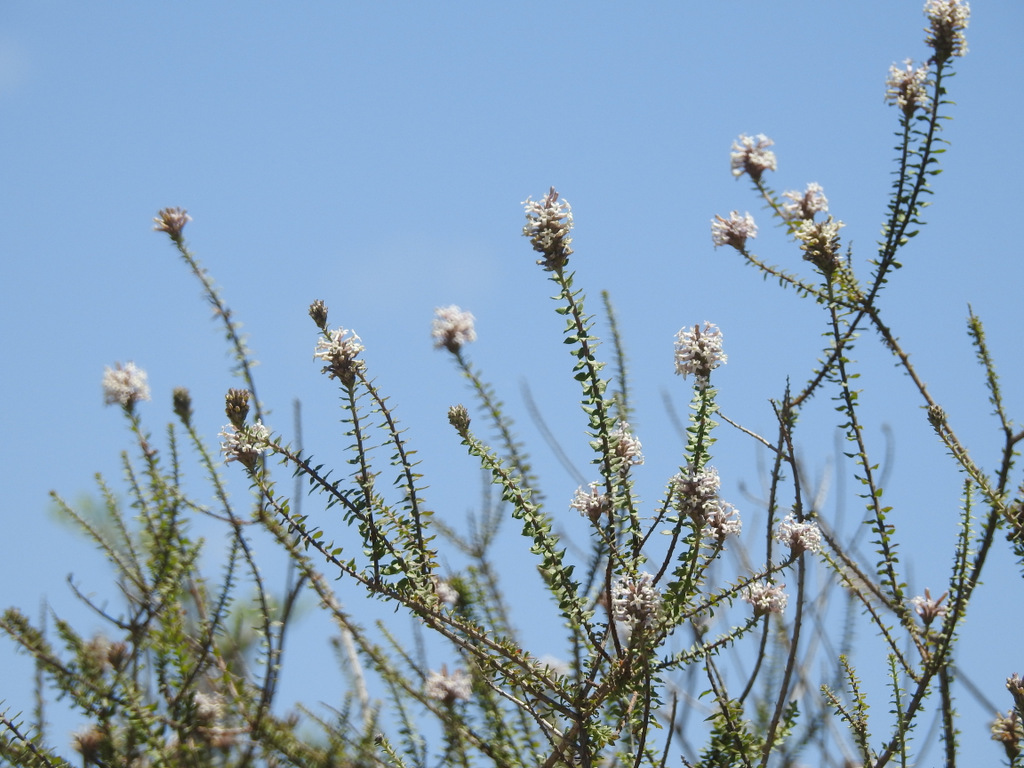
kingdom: Plantae
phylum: Tracheophyta
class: Magnoliopsida
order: Lamiales
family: Verbenaceae
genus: Mulguraea
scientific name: Mulguraea aspera
